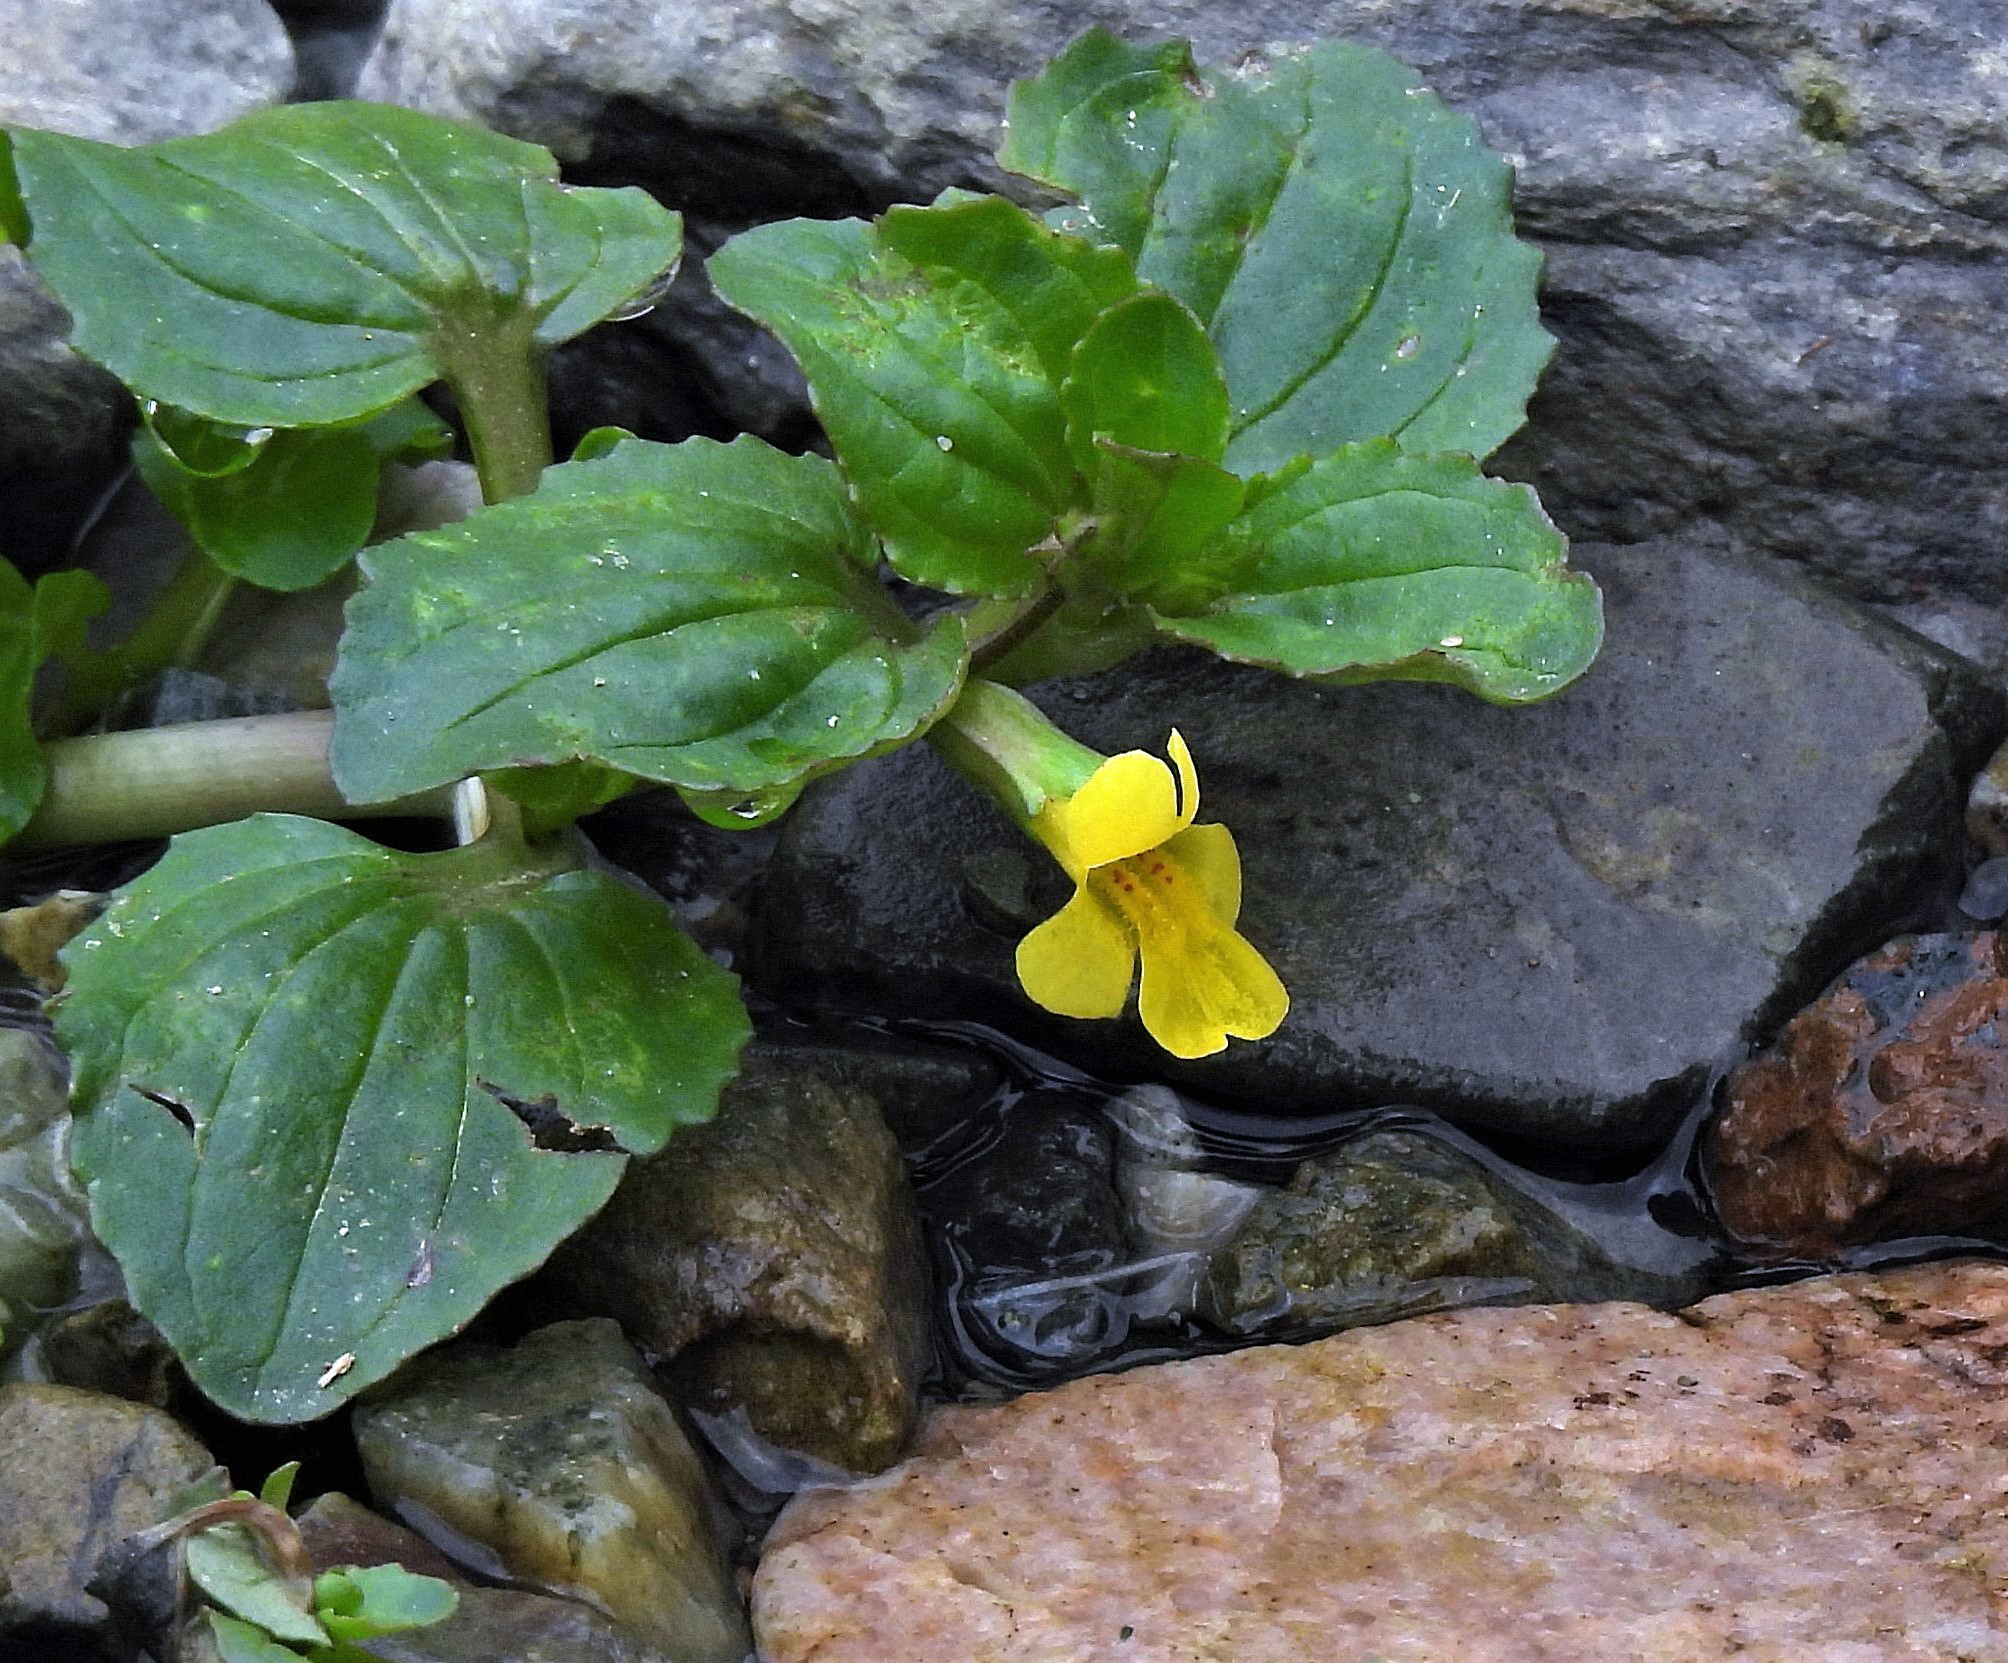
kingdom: Plantae
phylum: Tracheophyta
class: Magnoliopsida
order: Lamiales
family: Phrymaceae
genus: Erythranthe
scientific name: Erythranthe glabrata
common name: Round-leaved monkeyflower
